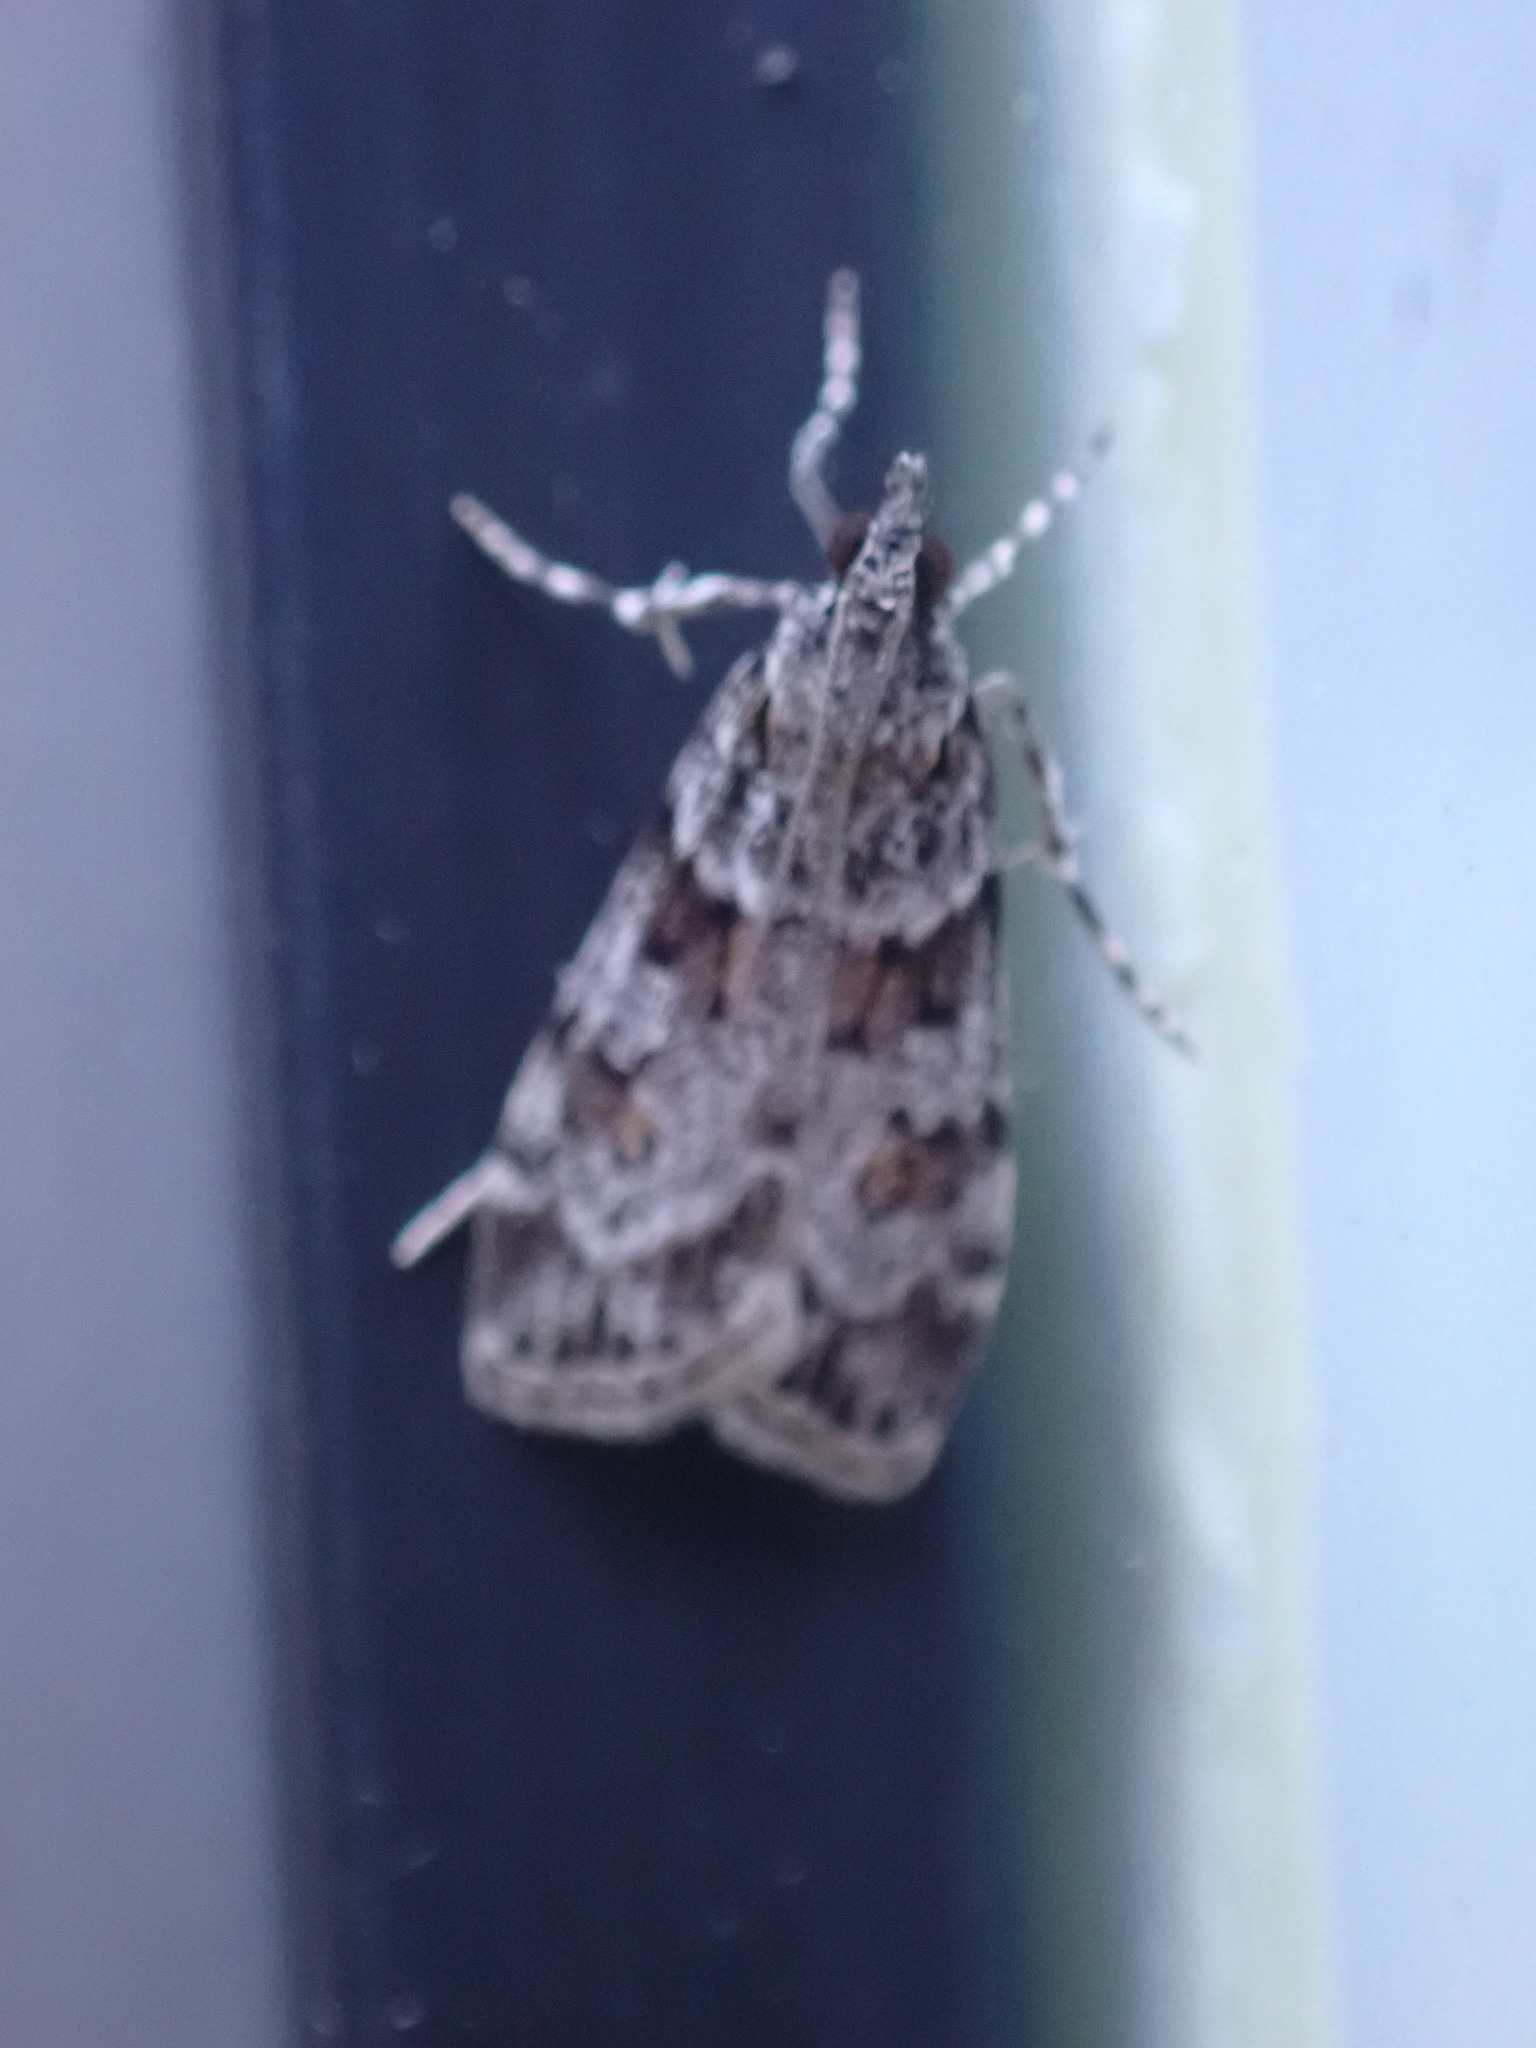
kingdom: Animalia
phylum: Arthropoda
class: Insecta
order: Lepidoptera
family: Crambidae
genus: Scoparia
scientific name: Scoparia biplagialis
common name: Double-striped scoparia moth
